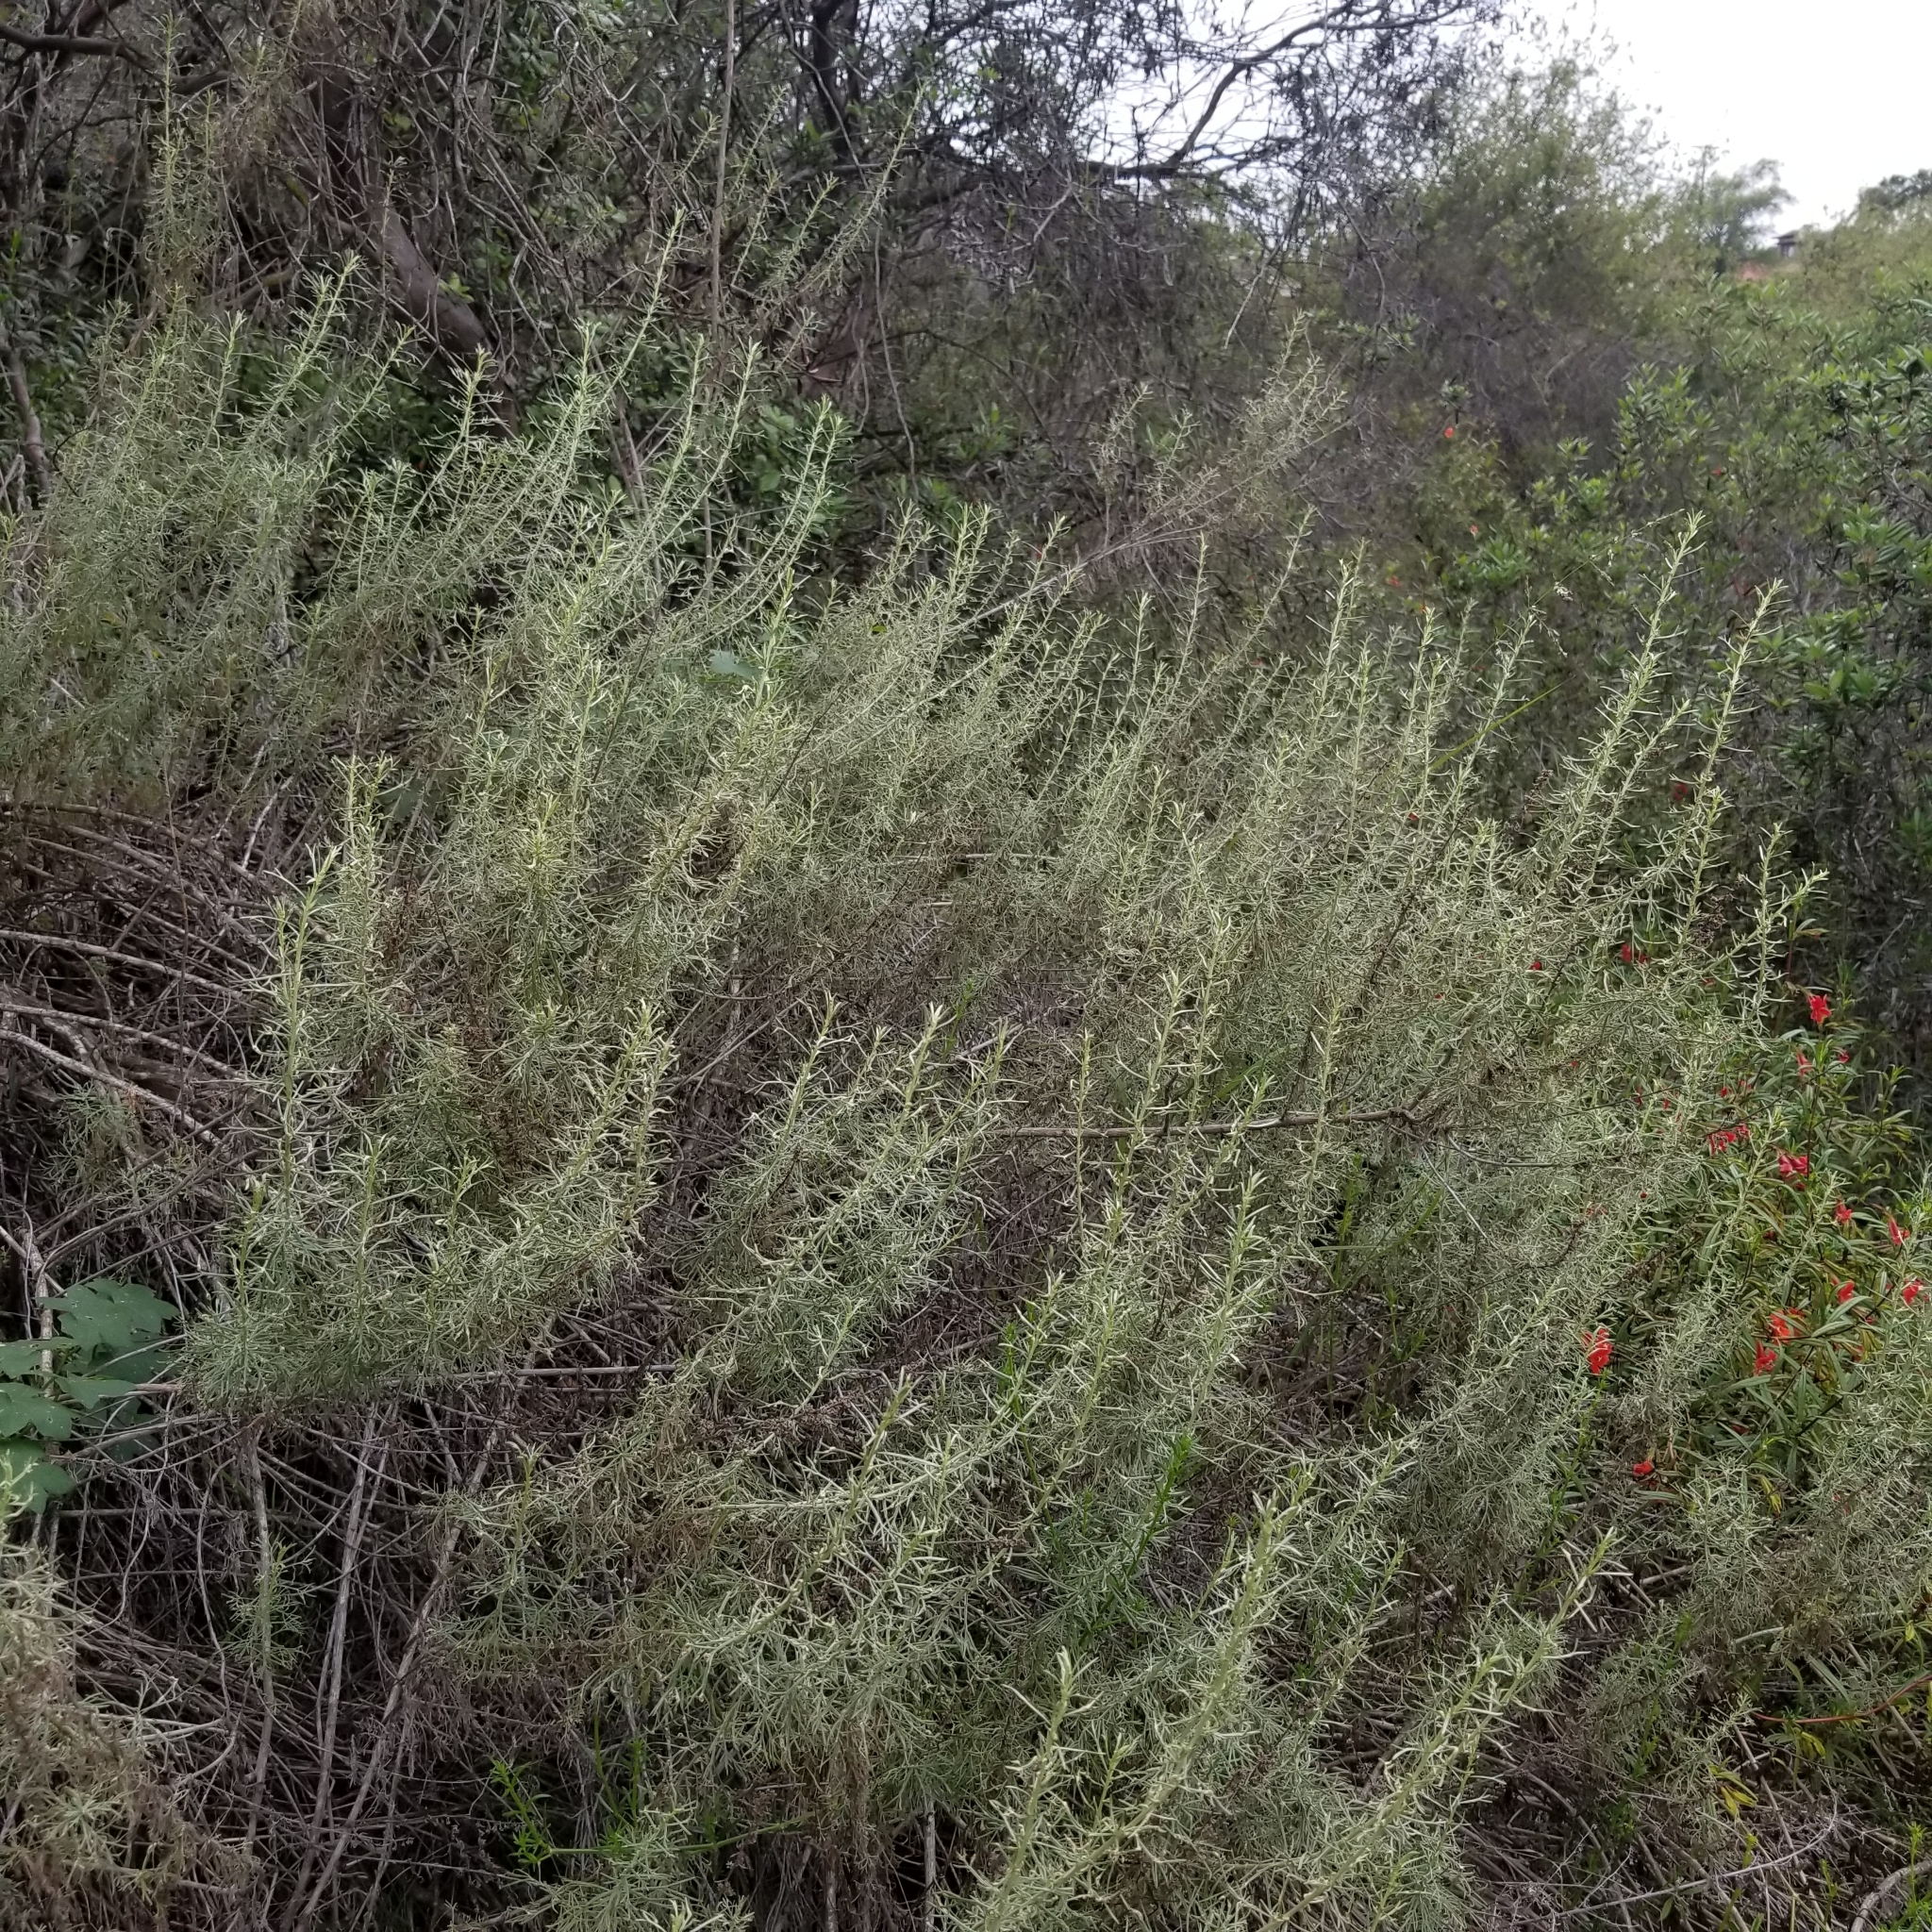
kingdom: Plantae
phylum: Tracheophyta
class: Magnoliopsida
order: Asterales
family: Asteraceae
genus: Artemisia
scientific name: Artemisia californica
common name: California sagebrush
